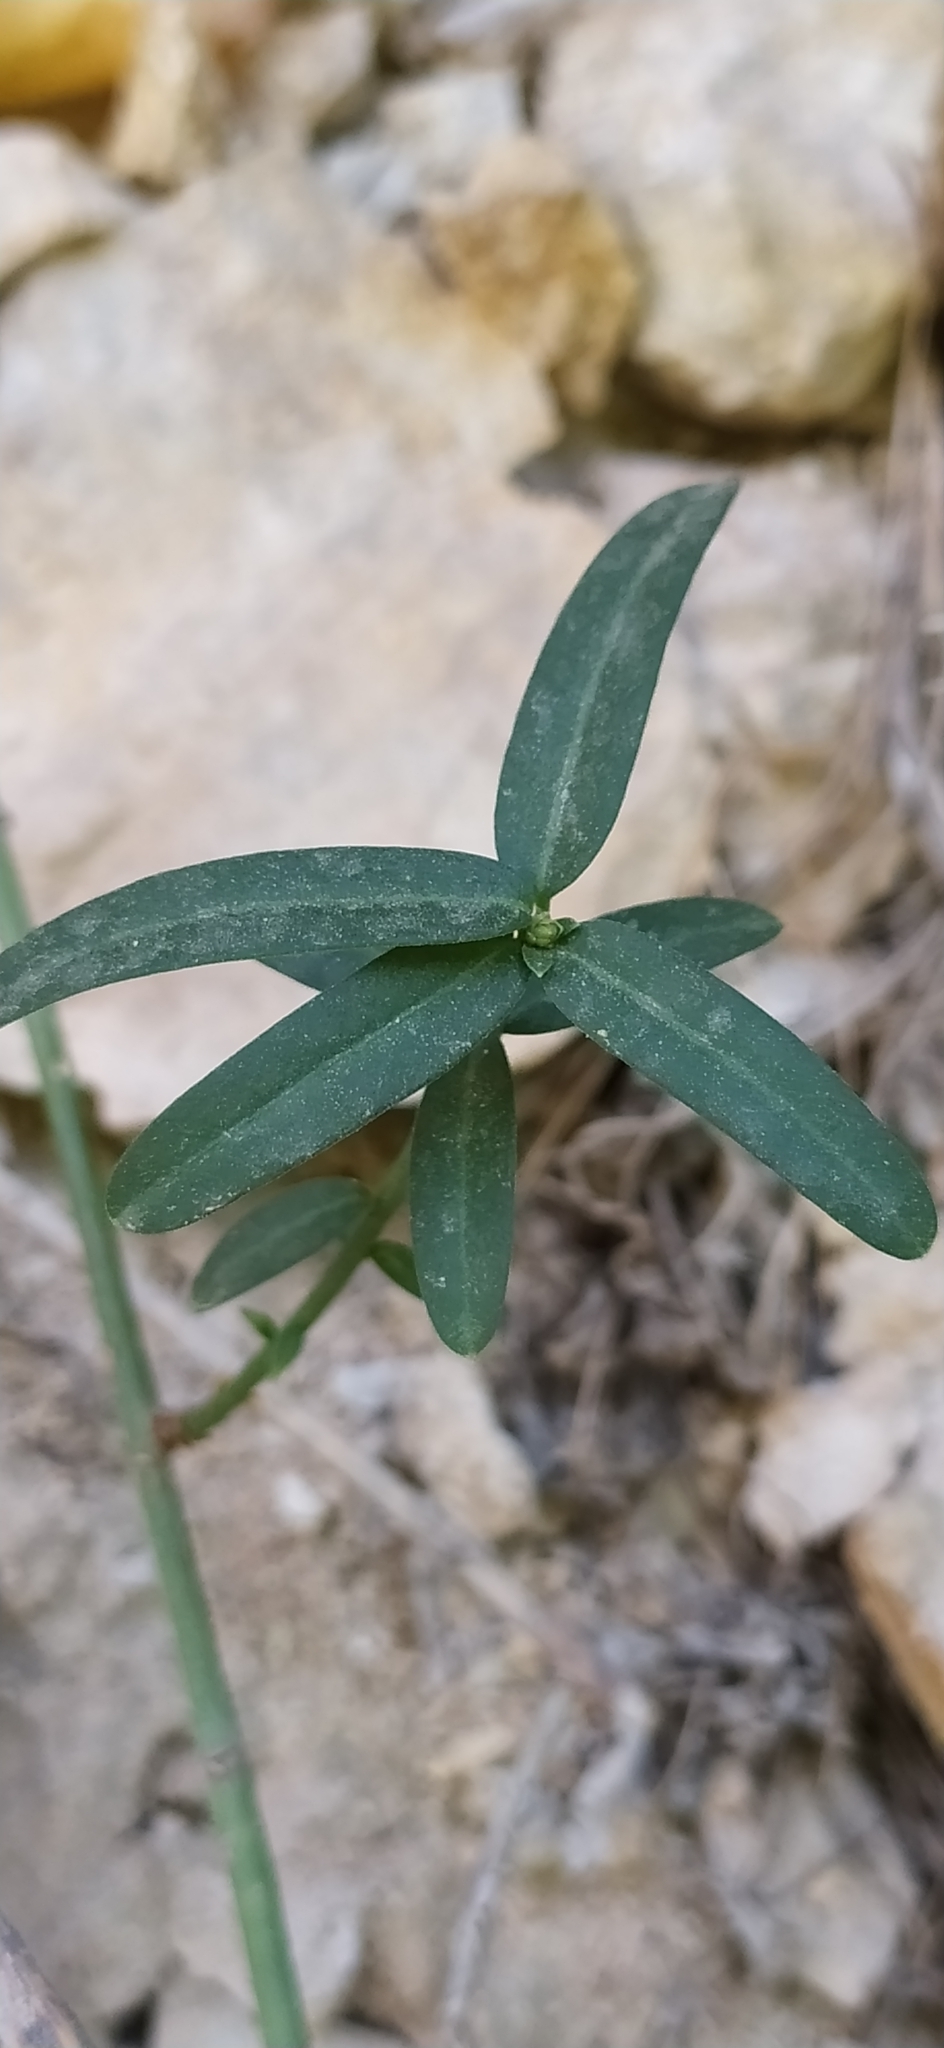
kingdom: Plantae
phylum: Tracheophyta
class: Magnoliopsida
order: Celastrales
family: Celastraceae
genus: Euonymus
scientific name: Euonymus nanus
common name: Dwarf spindle
